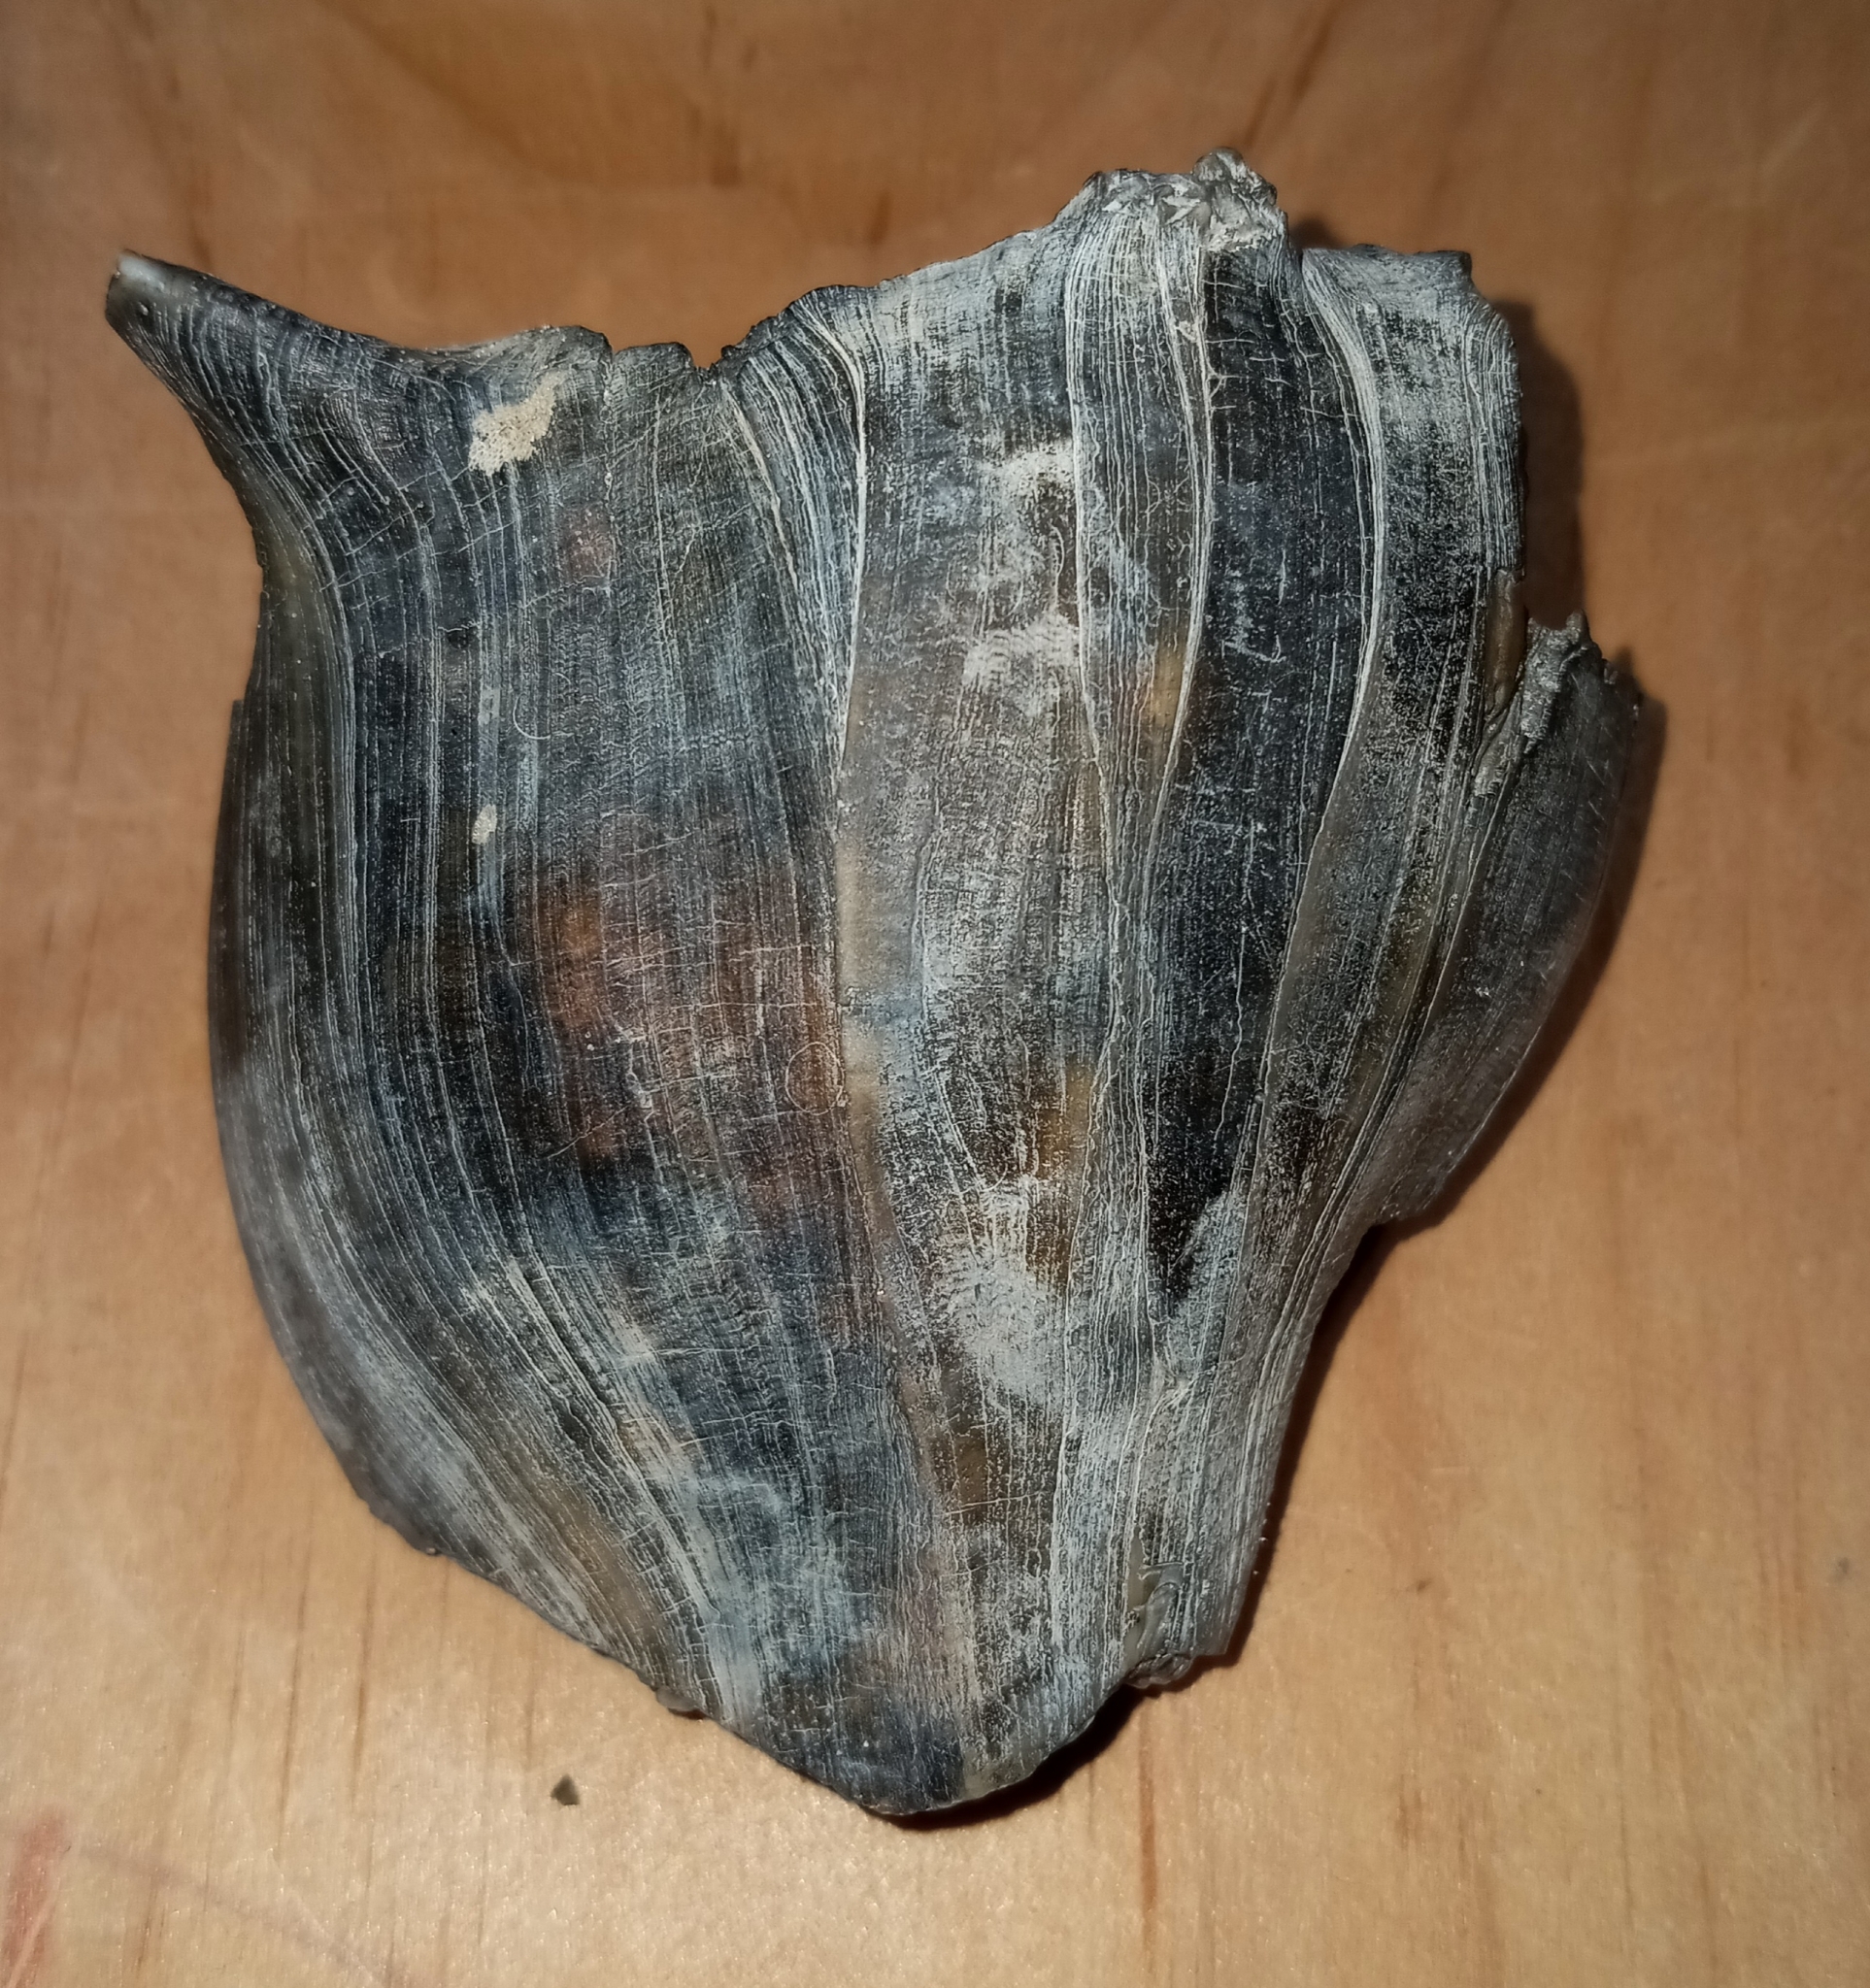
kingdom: Animalia
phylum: Mollusca
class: Gastropoda
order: Neogastropoda
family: Busyconidae
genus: Busycon
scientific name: Busycon carica
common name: Knobbed whelk
